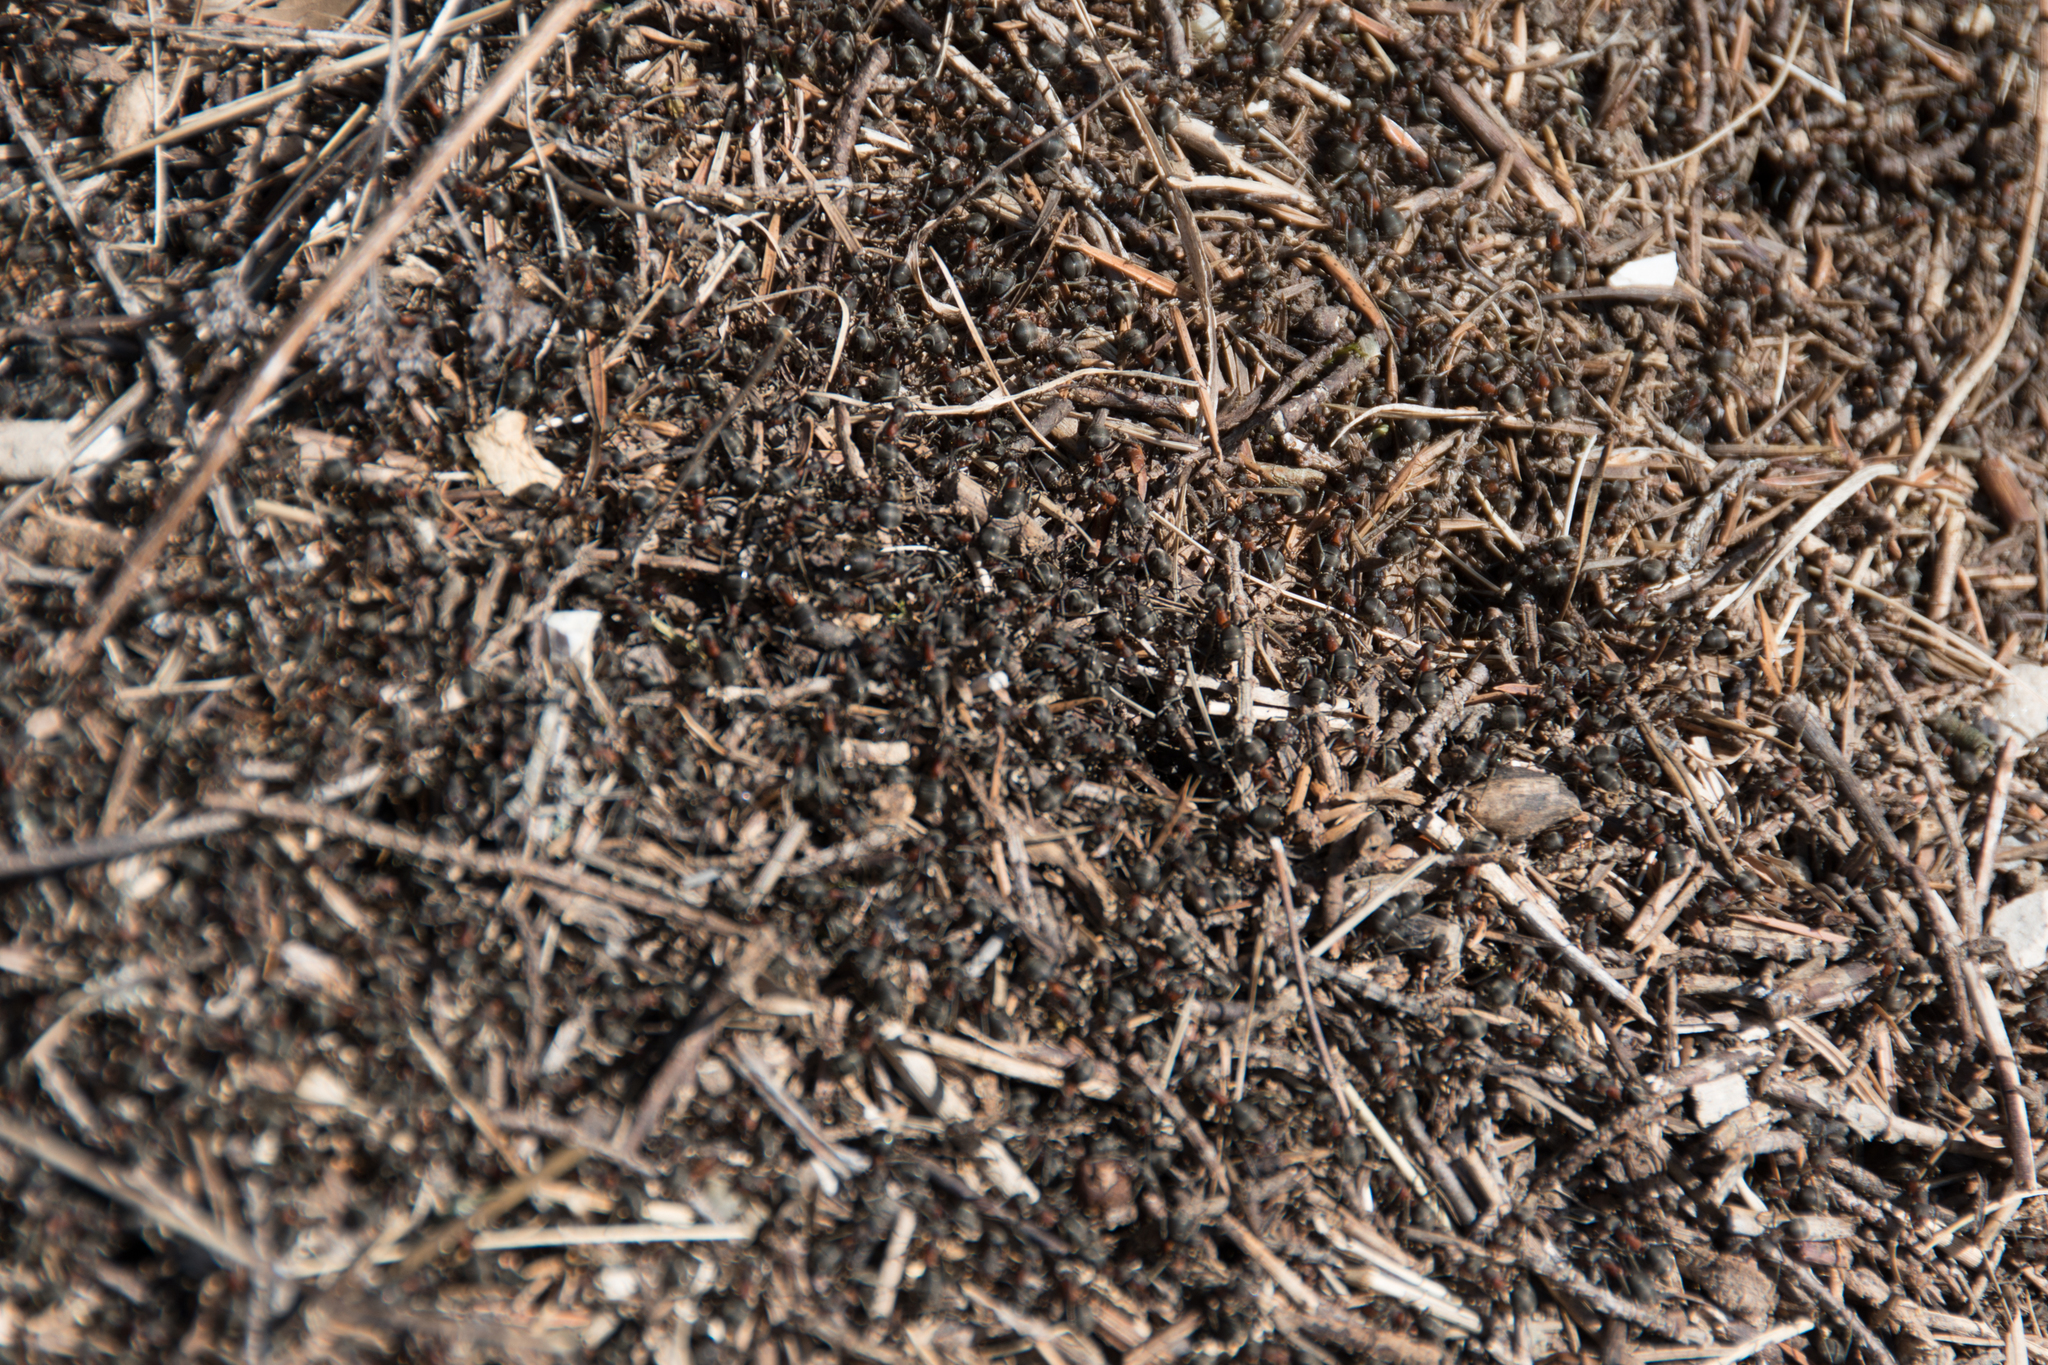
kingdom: Animalia
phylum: Arthropoda
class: Insecta
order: Hymenoptera
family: Formicidae
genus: Formica
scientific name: Formica pratensis
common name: European red wood ant
